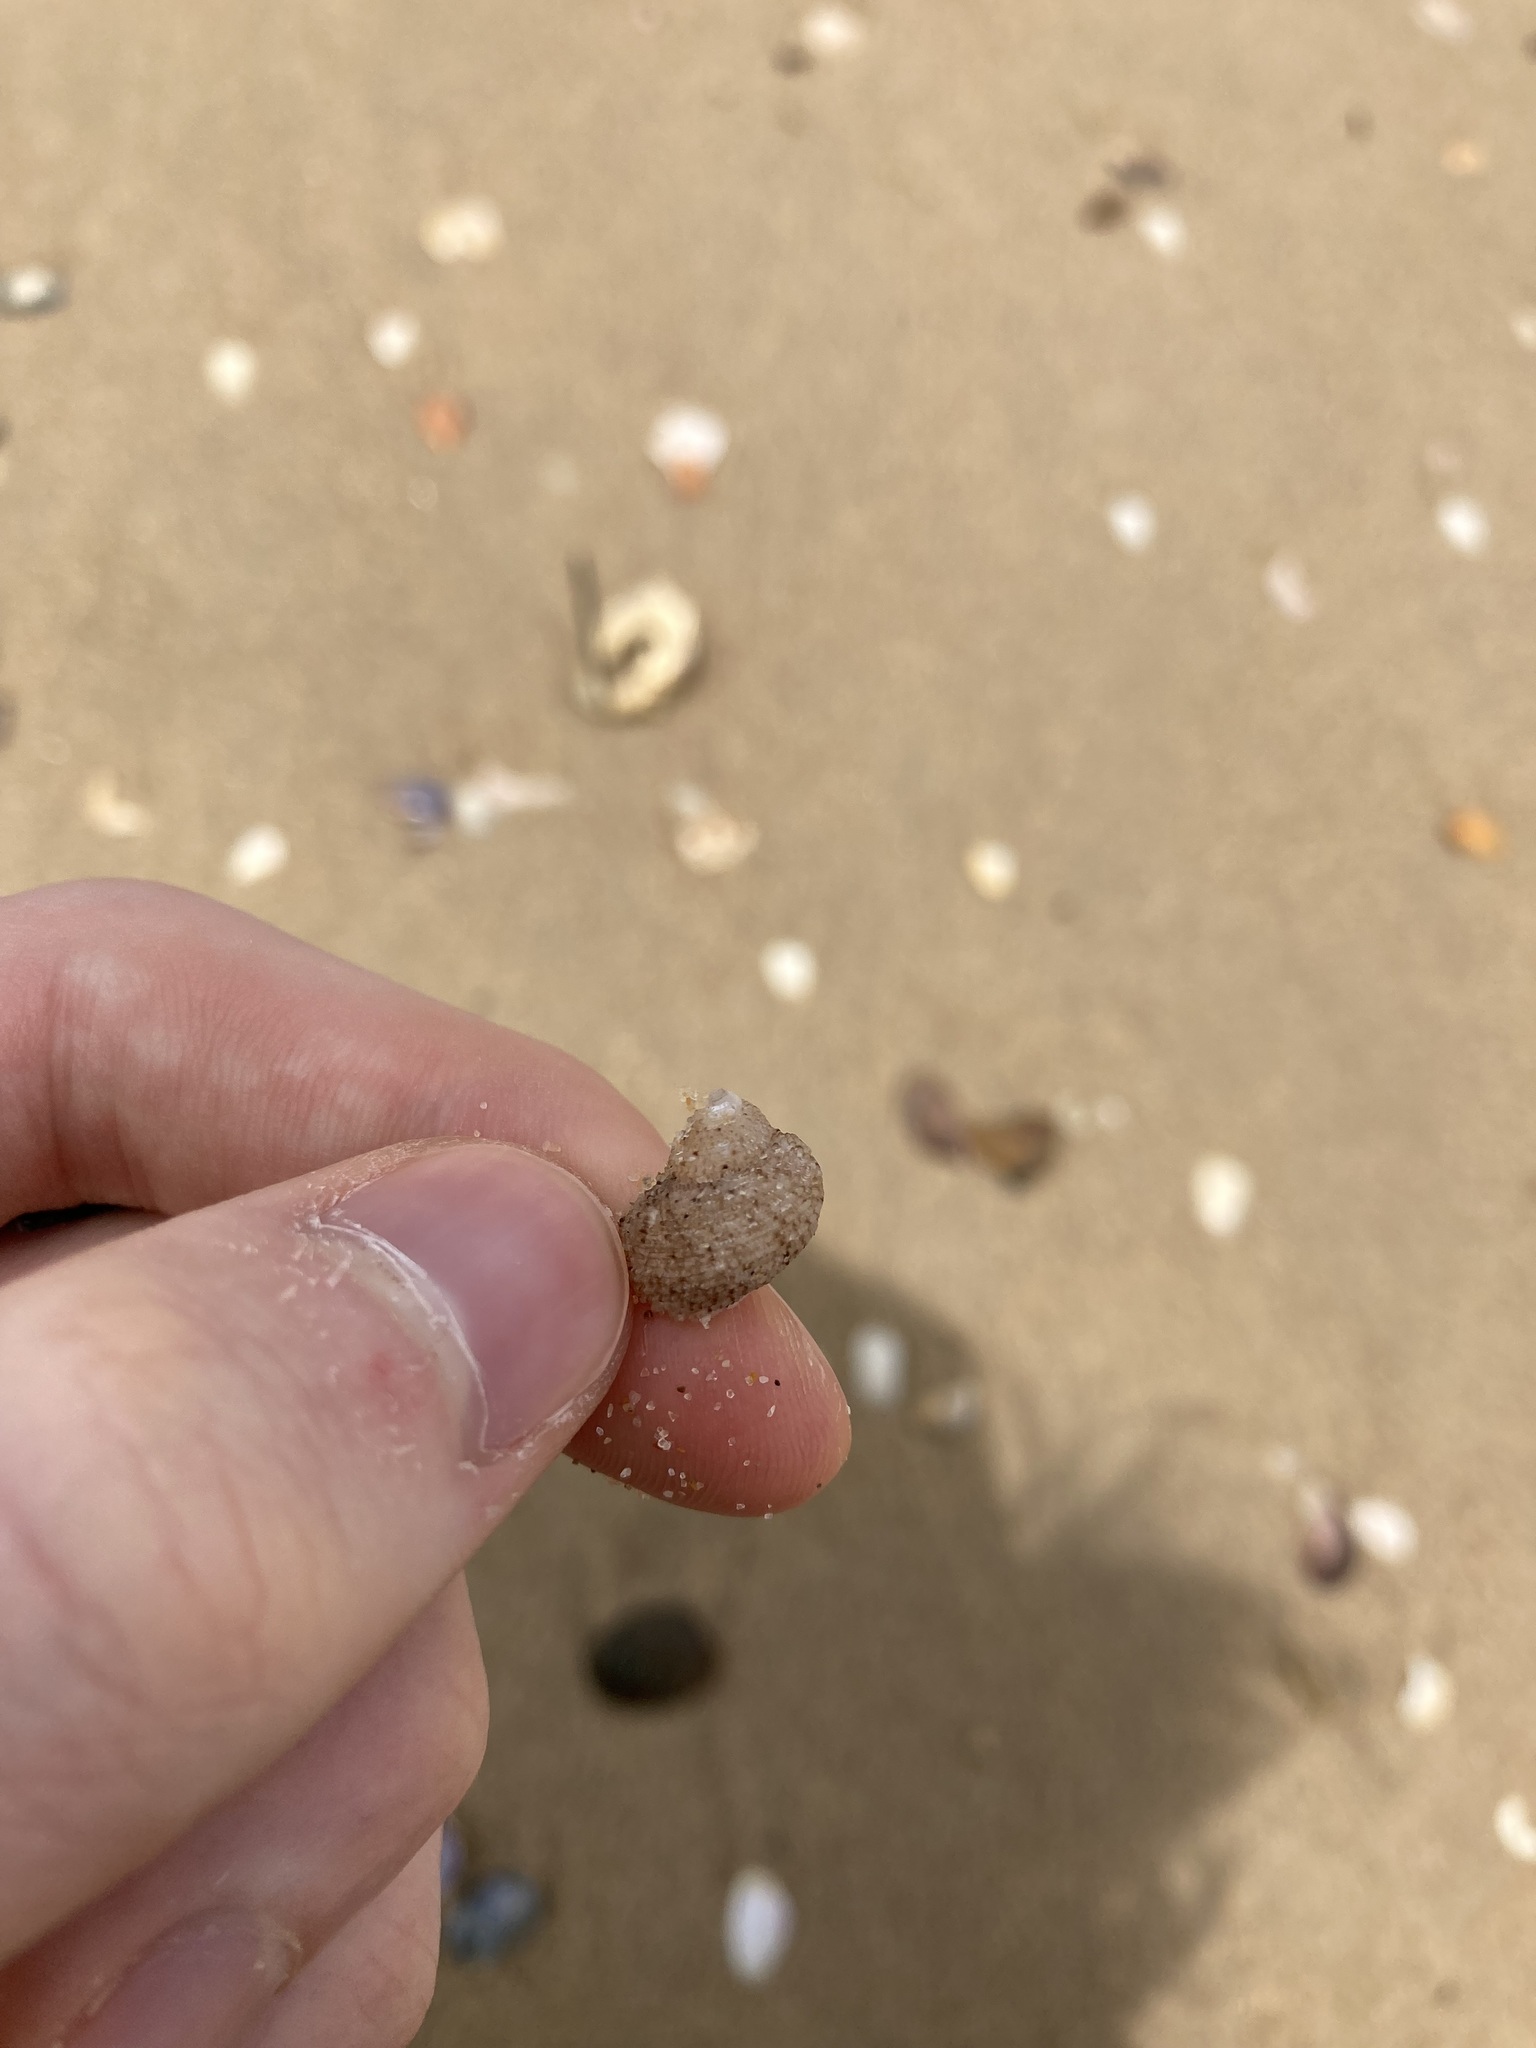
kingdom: Animalia
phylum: Mollusca
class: Gastropoda
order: Seguenziida
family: Chilodontaidae
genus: Herpetopoma
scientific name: Herpetopoma aspersum
